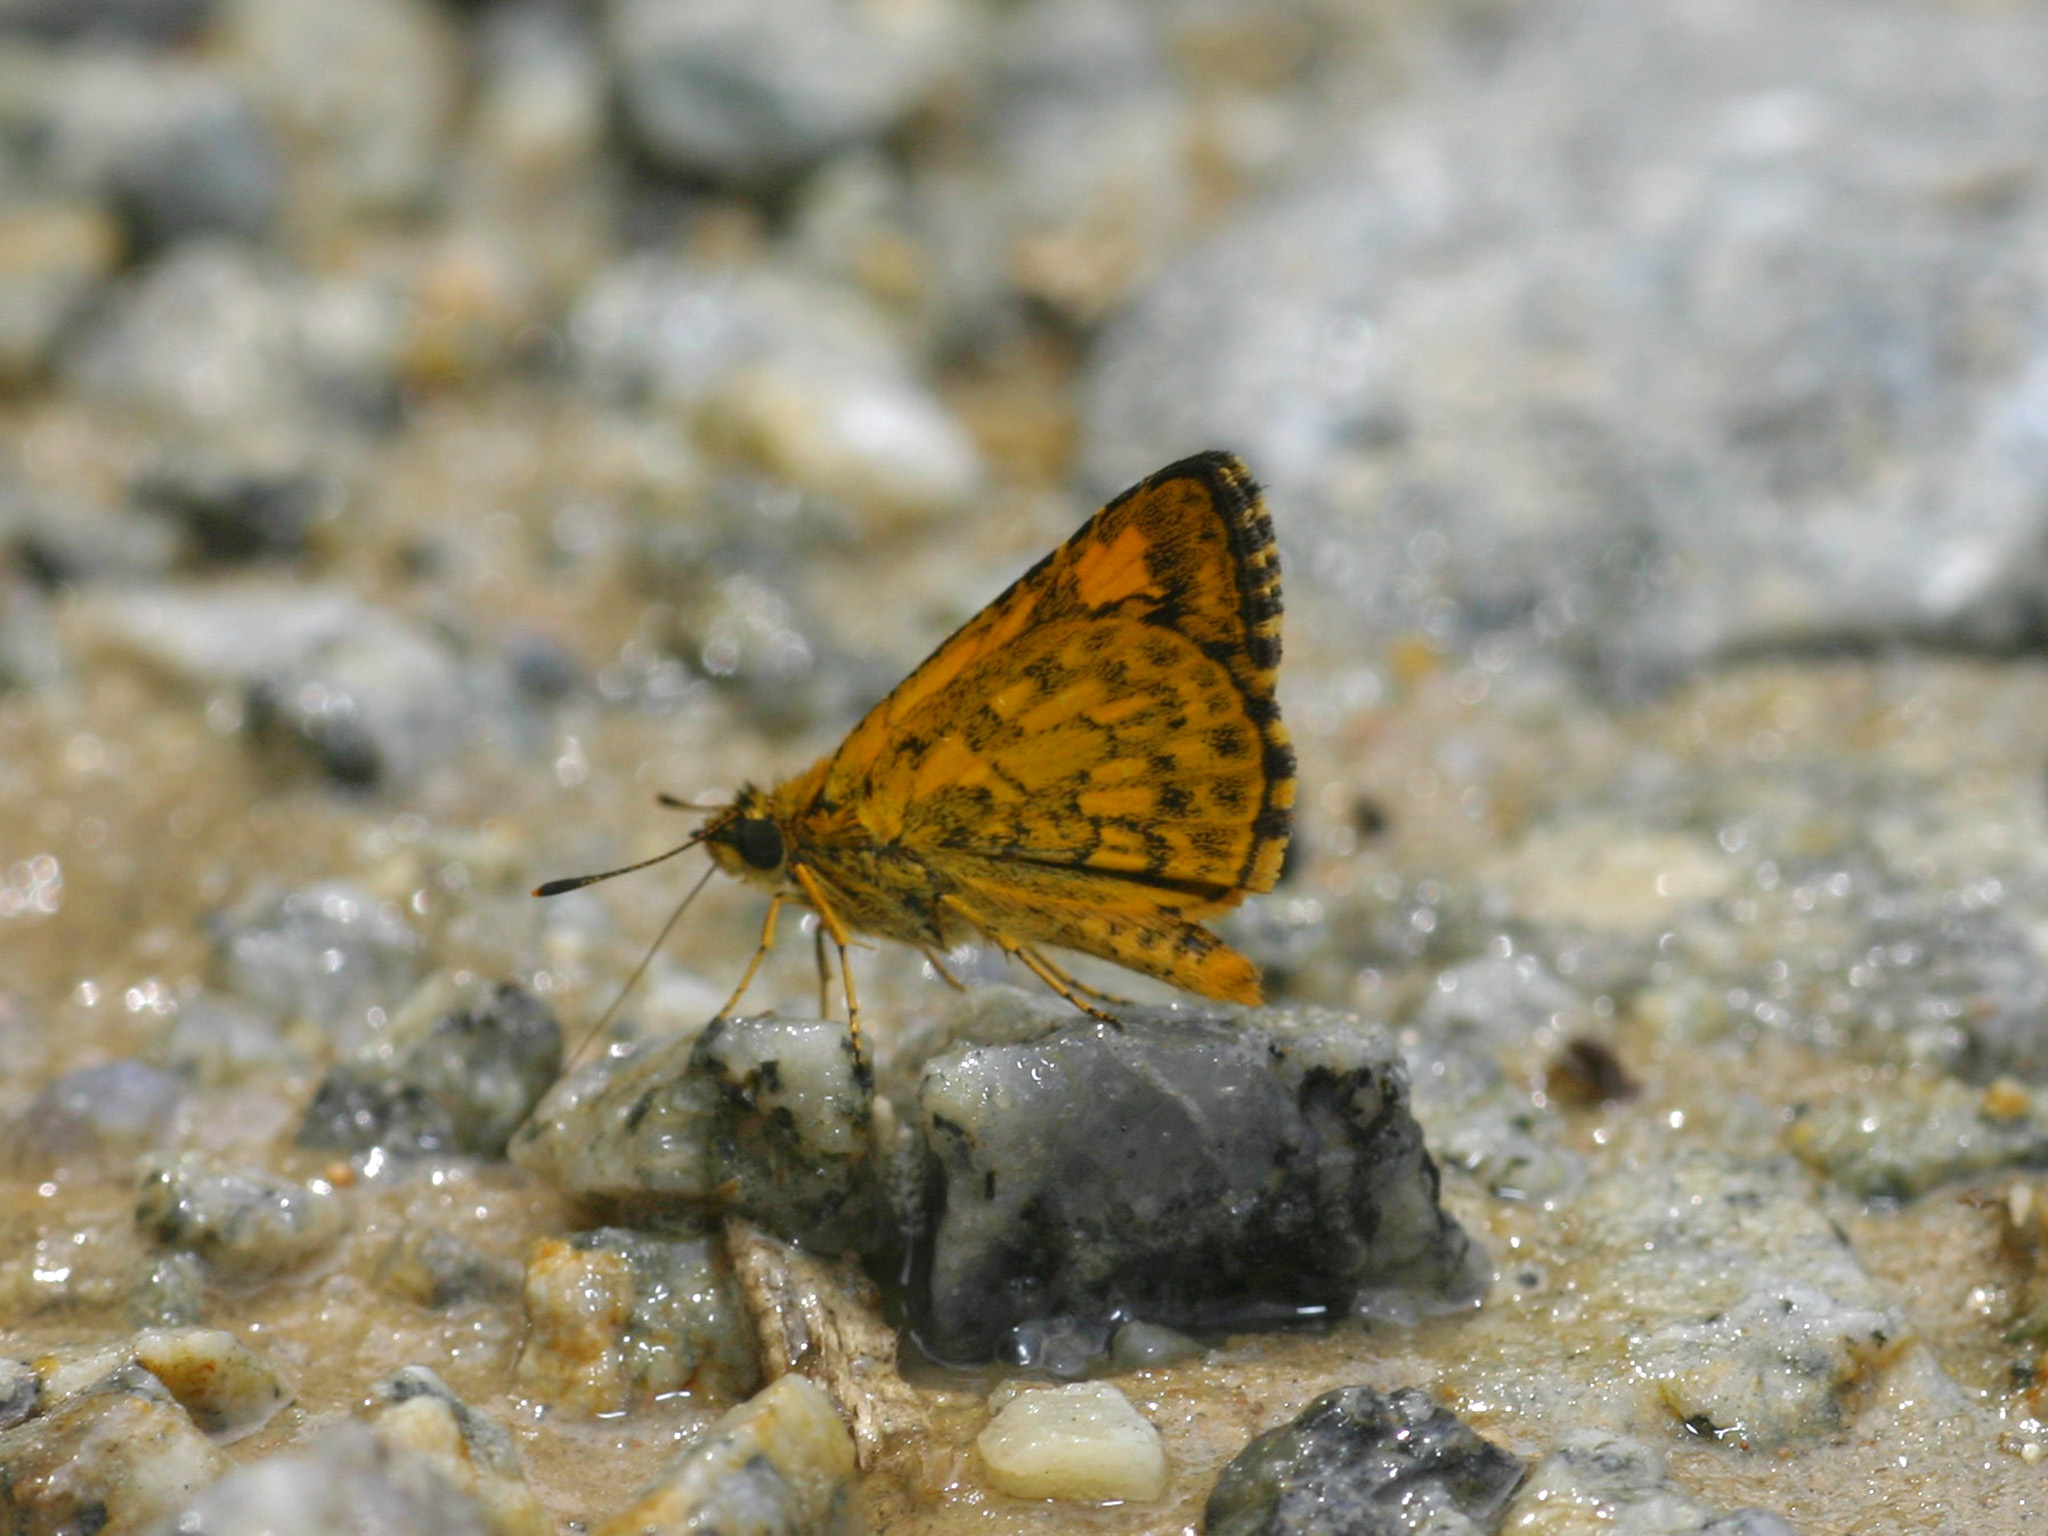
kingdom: Animalia
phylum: Arthropoda
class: Insecta
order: Lepidoptera
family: Hesperiidae
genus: Ampittia
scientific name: Ampittia dioscorides
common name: Common bush hopper
